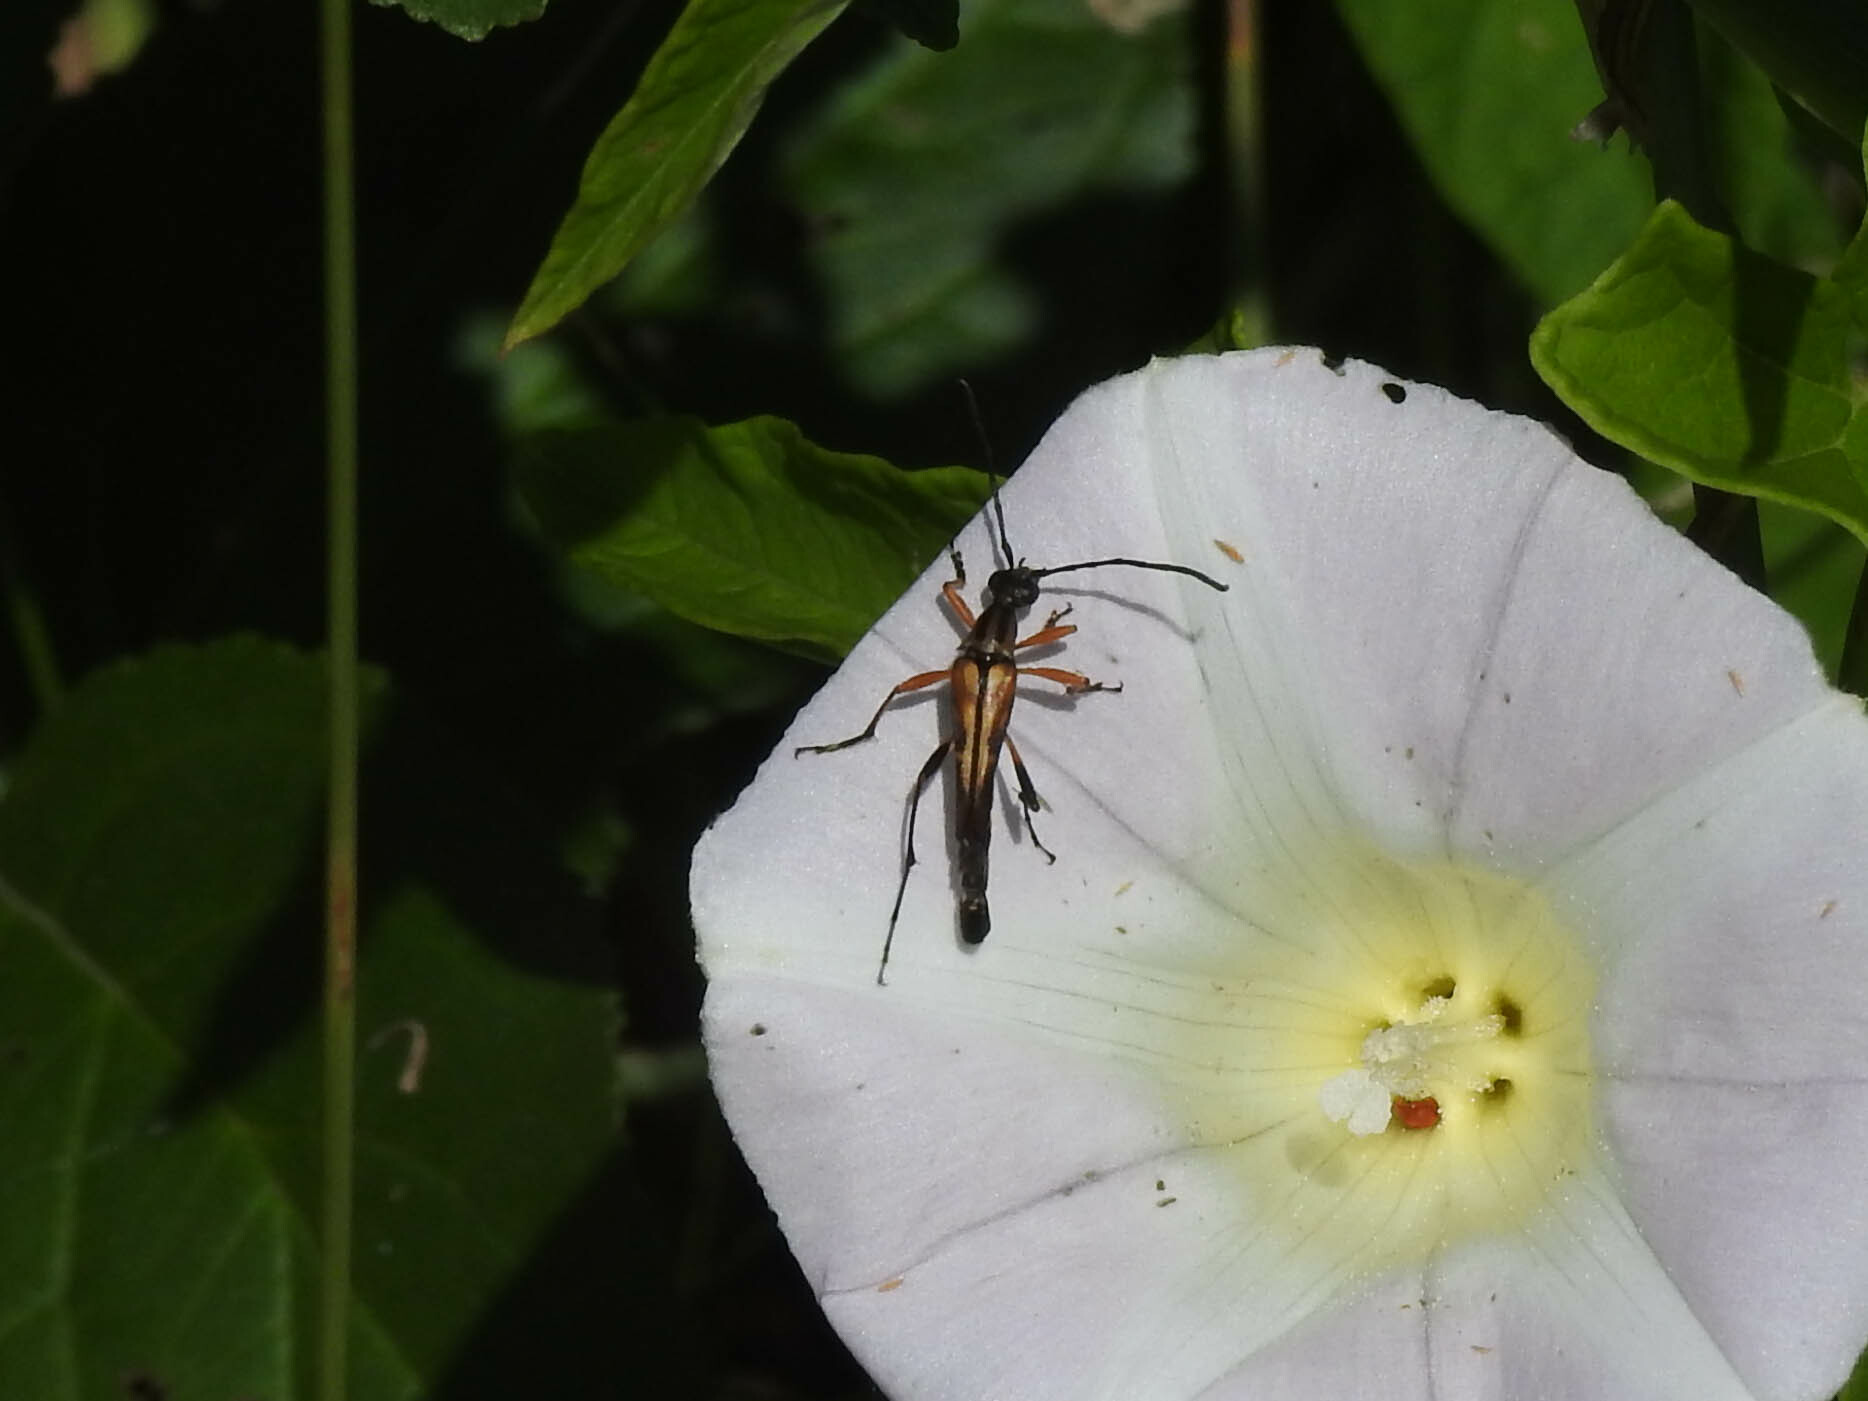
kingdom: Animalia
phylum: Arthropoda
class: Insecta
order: Coleoptera
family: Cerambycidae
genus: Strangalia
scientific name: Strangalia famelica
